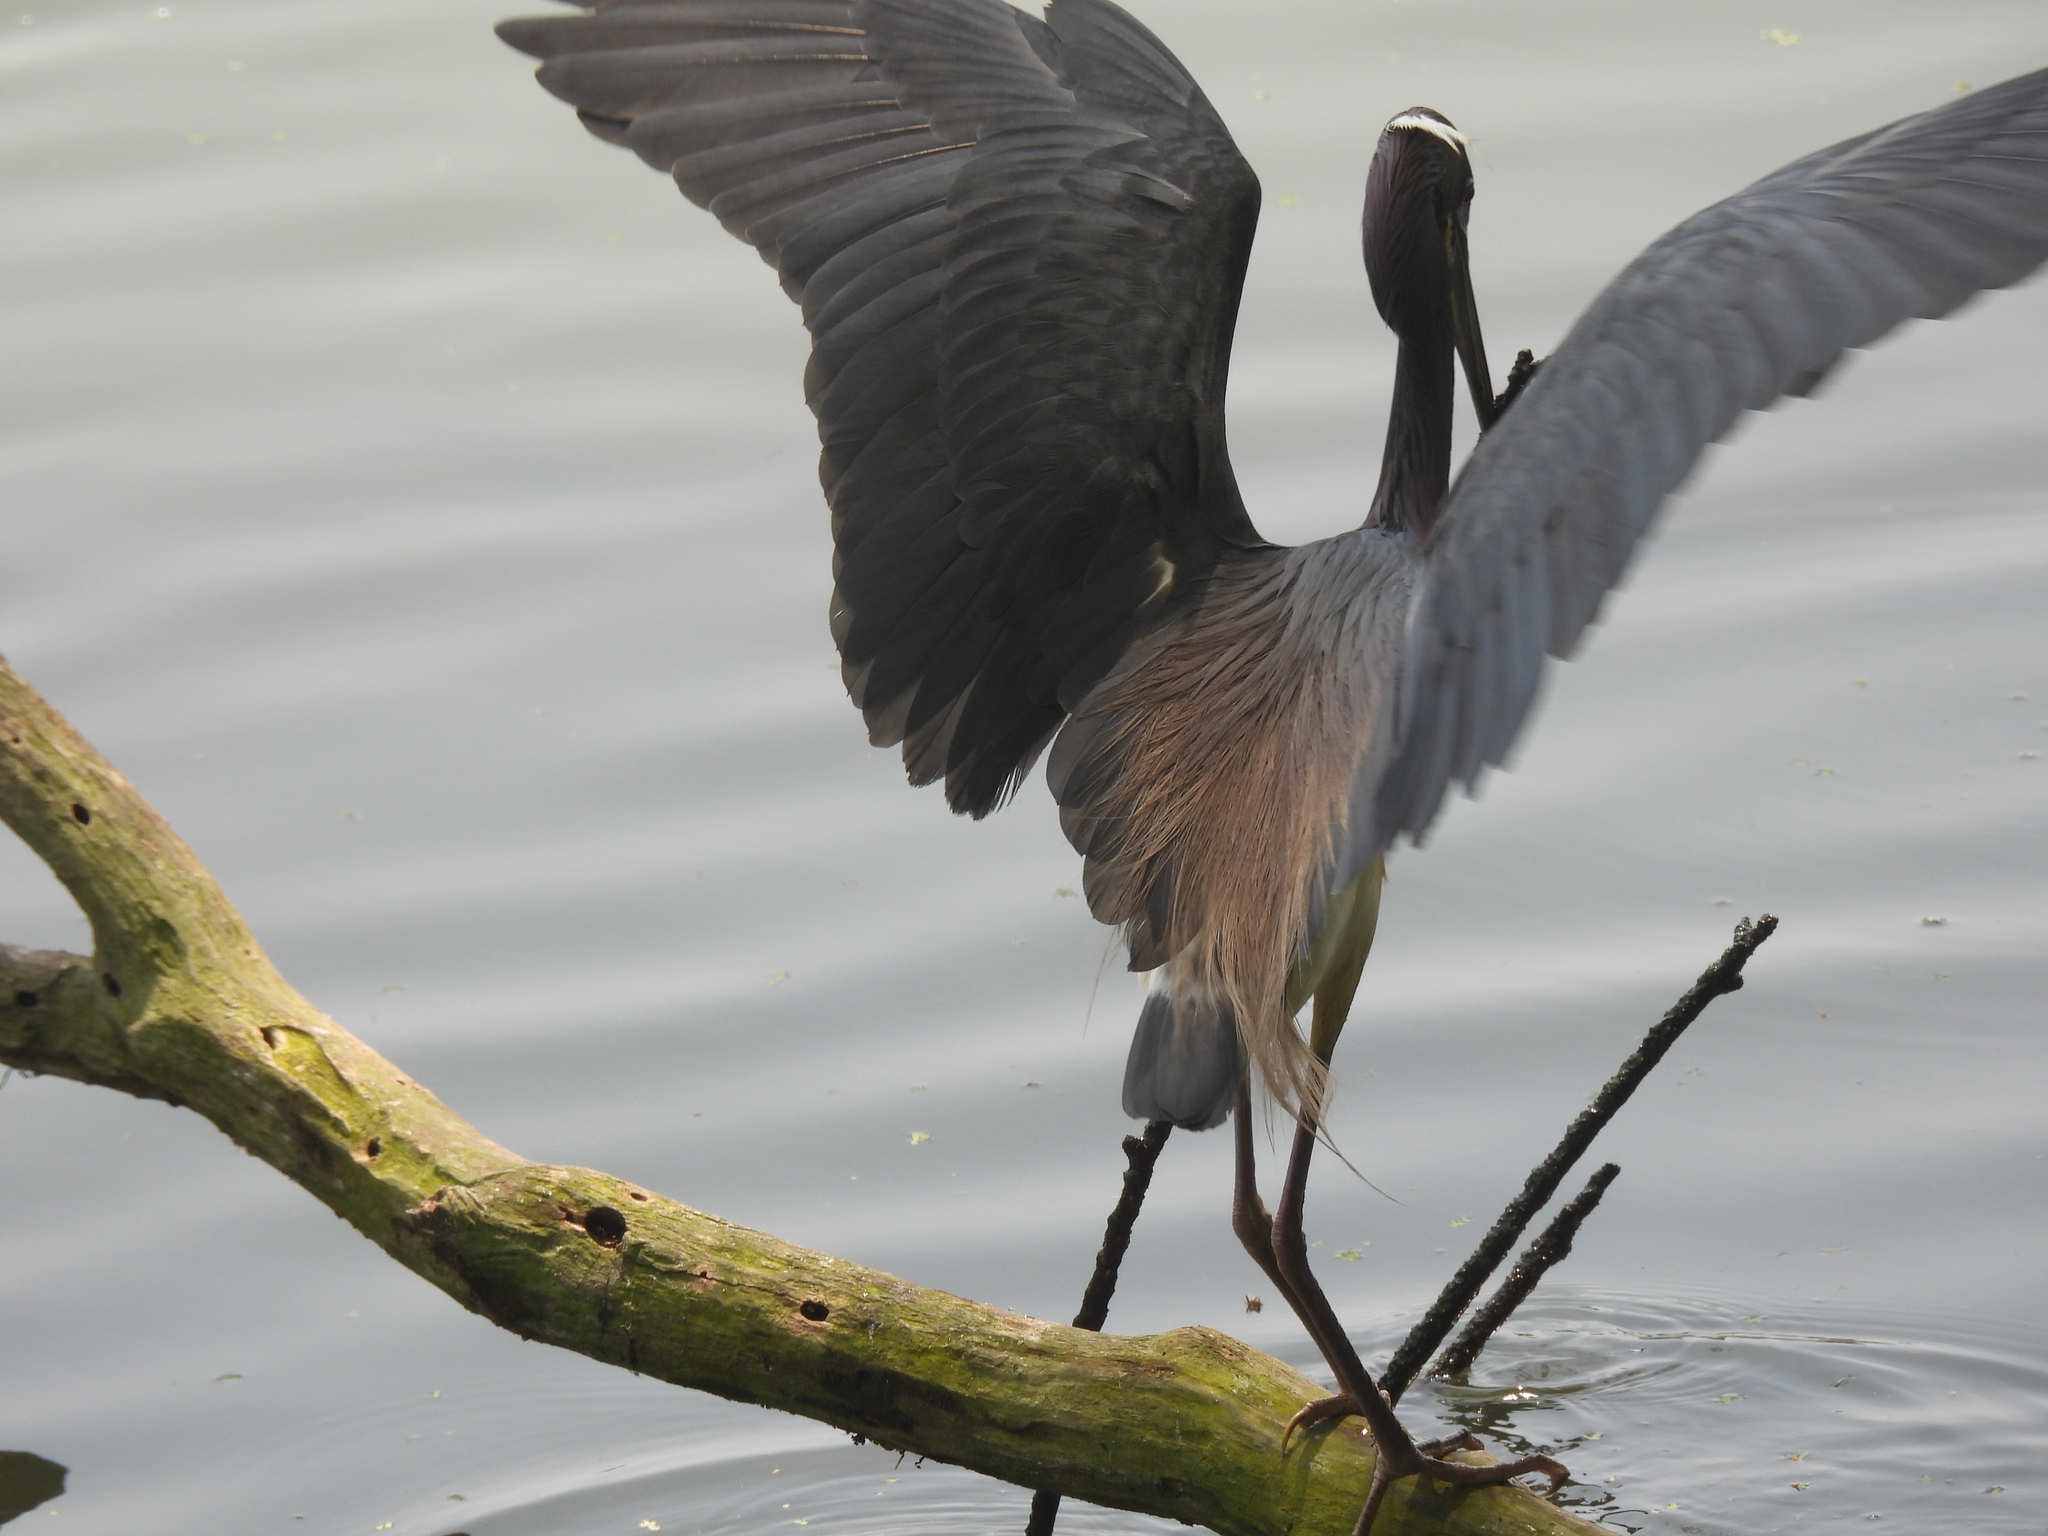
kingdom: Animalia
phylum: Chordata
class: Aves
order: Pelecaniformes
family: Ardeidae
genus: Egretta
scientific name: Egretta tricolor
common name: Tricolored heron
